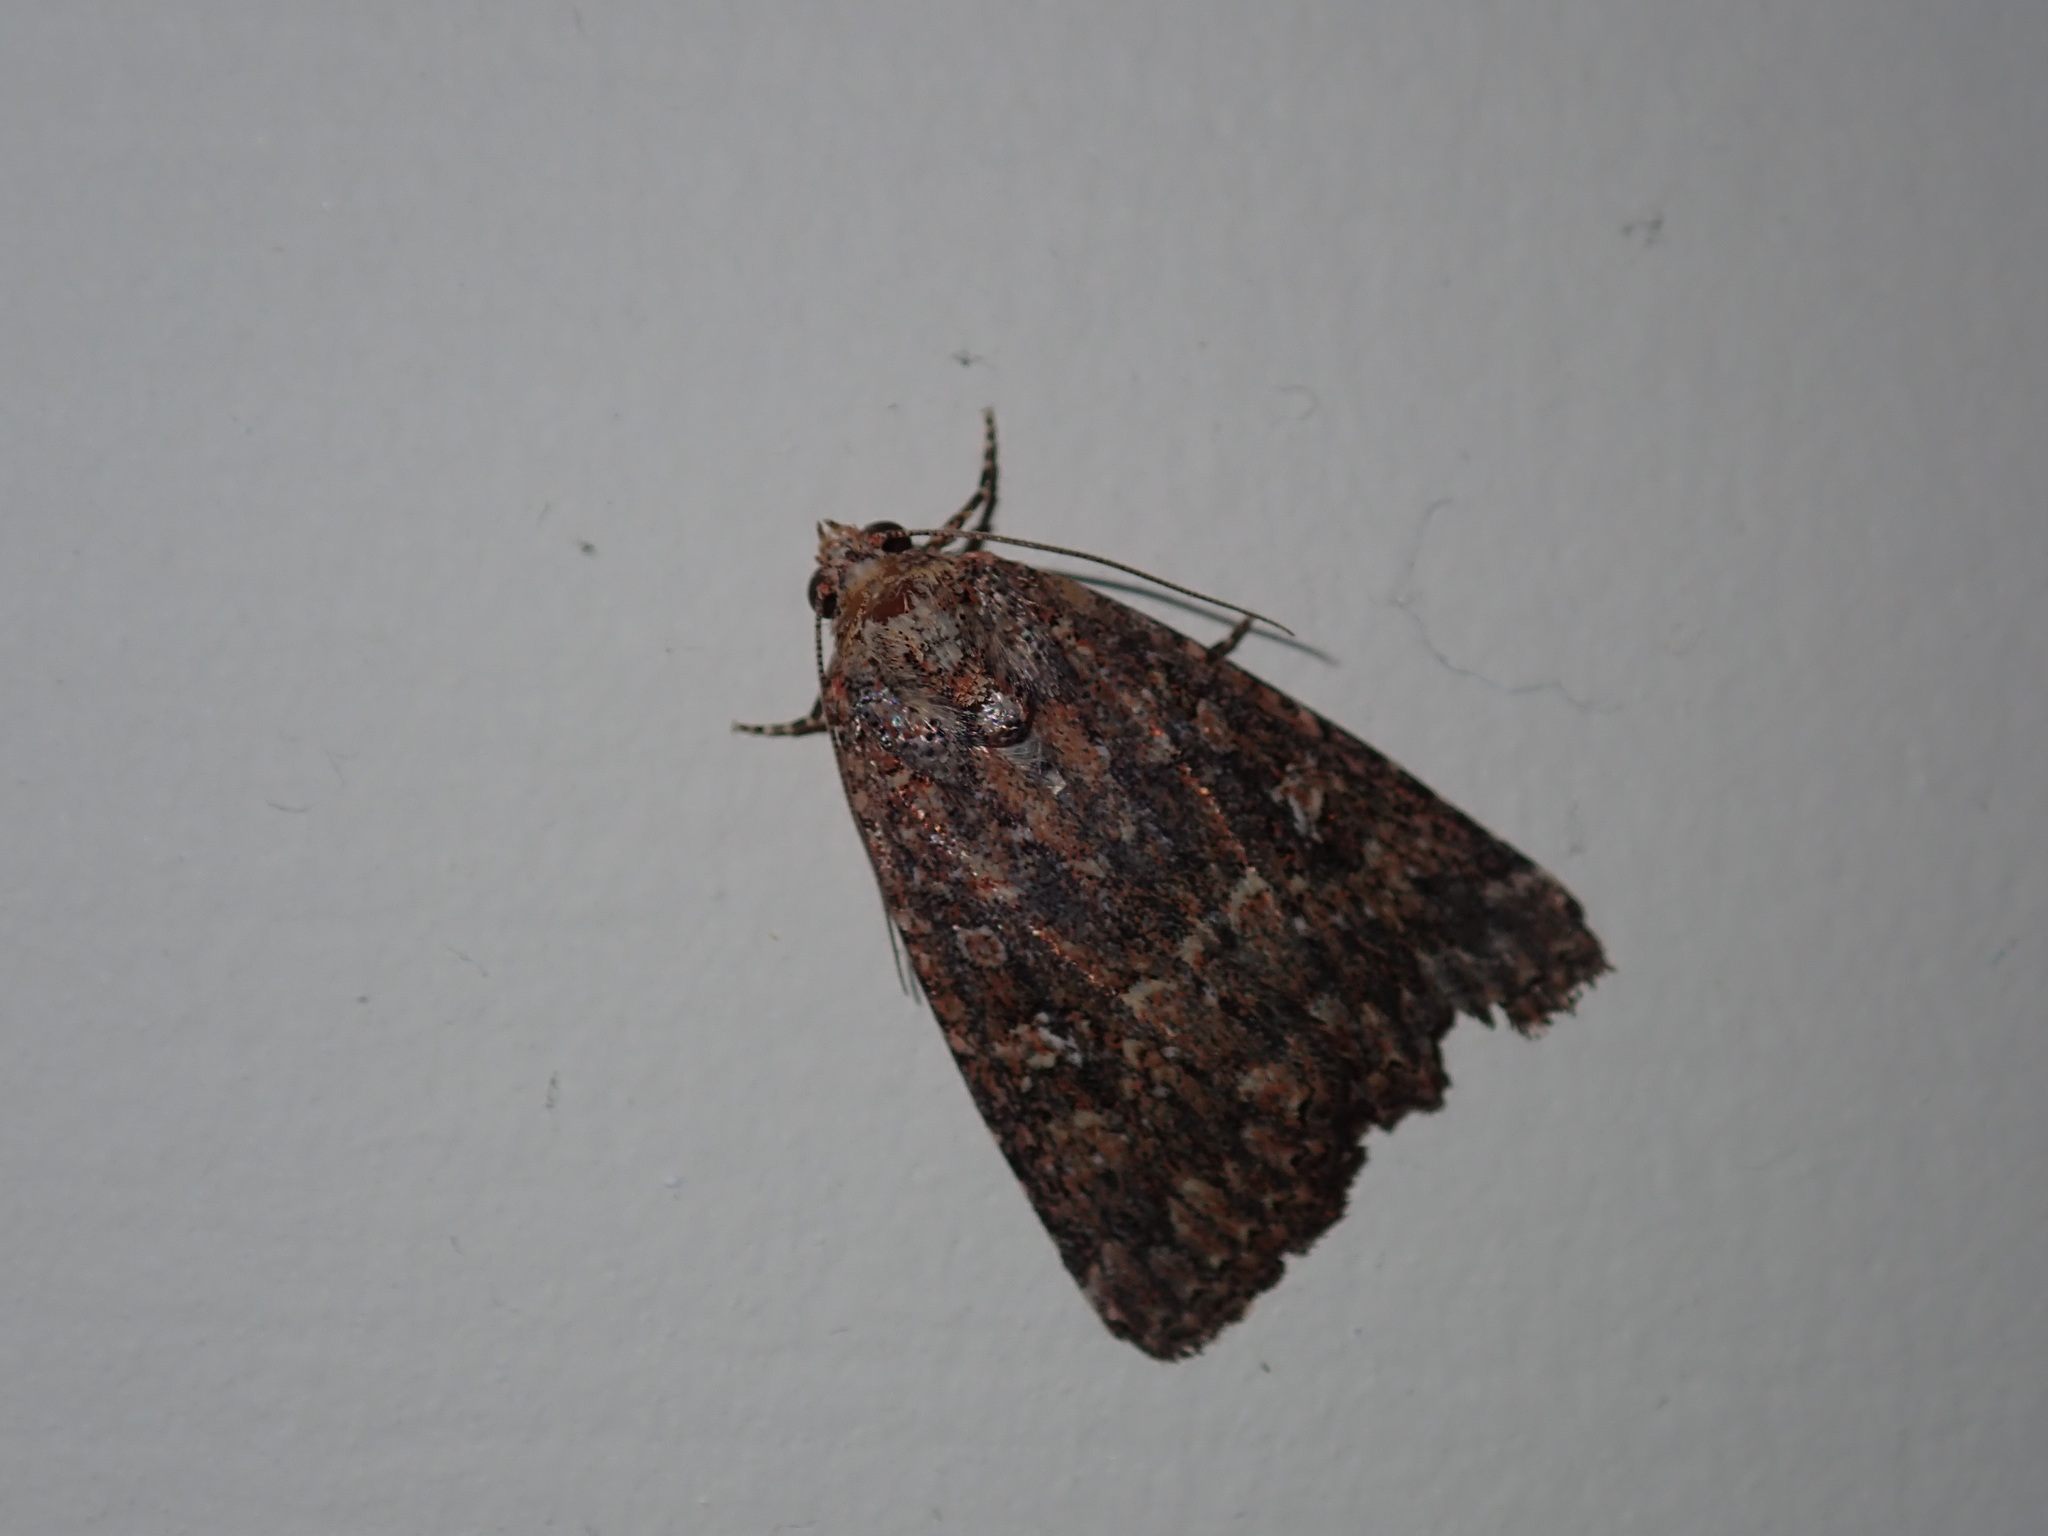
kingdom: Animalia
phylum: Arthropoda
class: Insecta
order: Lepidoptera
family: Noctuidae
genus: Hypoperigea
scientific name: Hypoperigea tonsa
